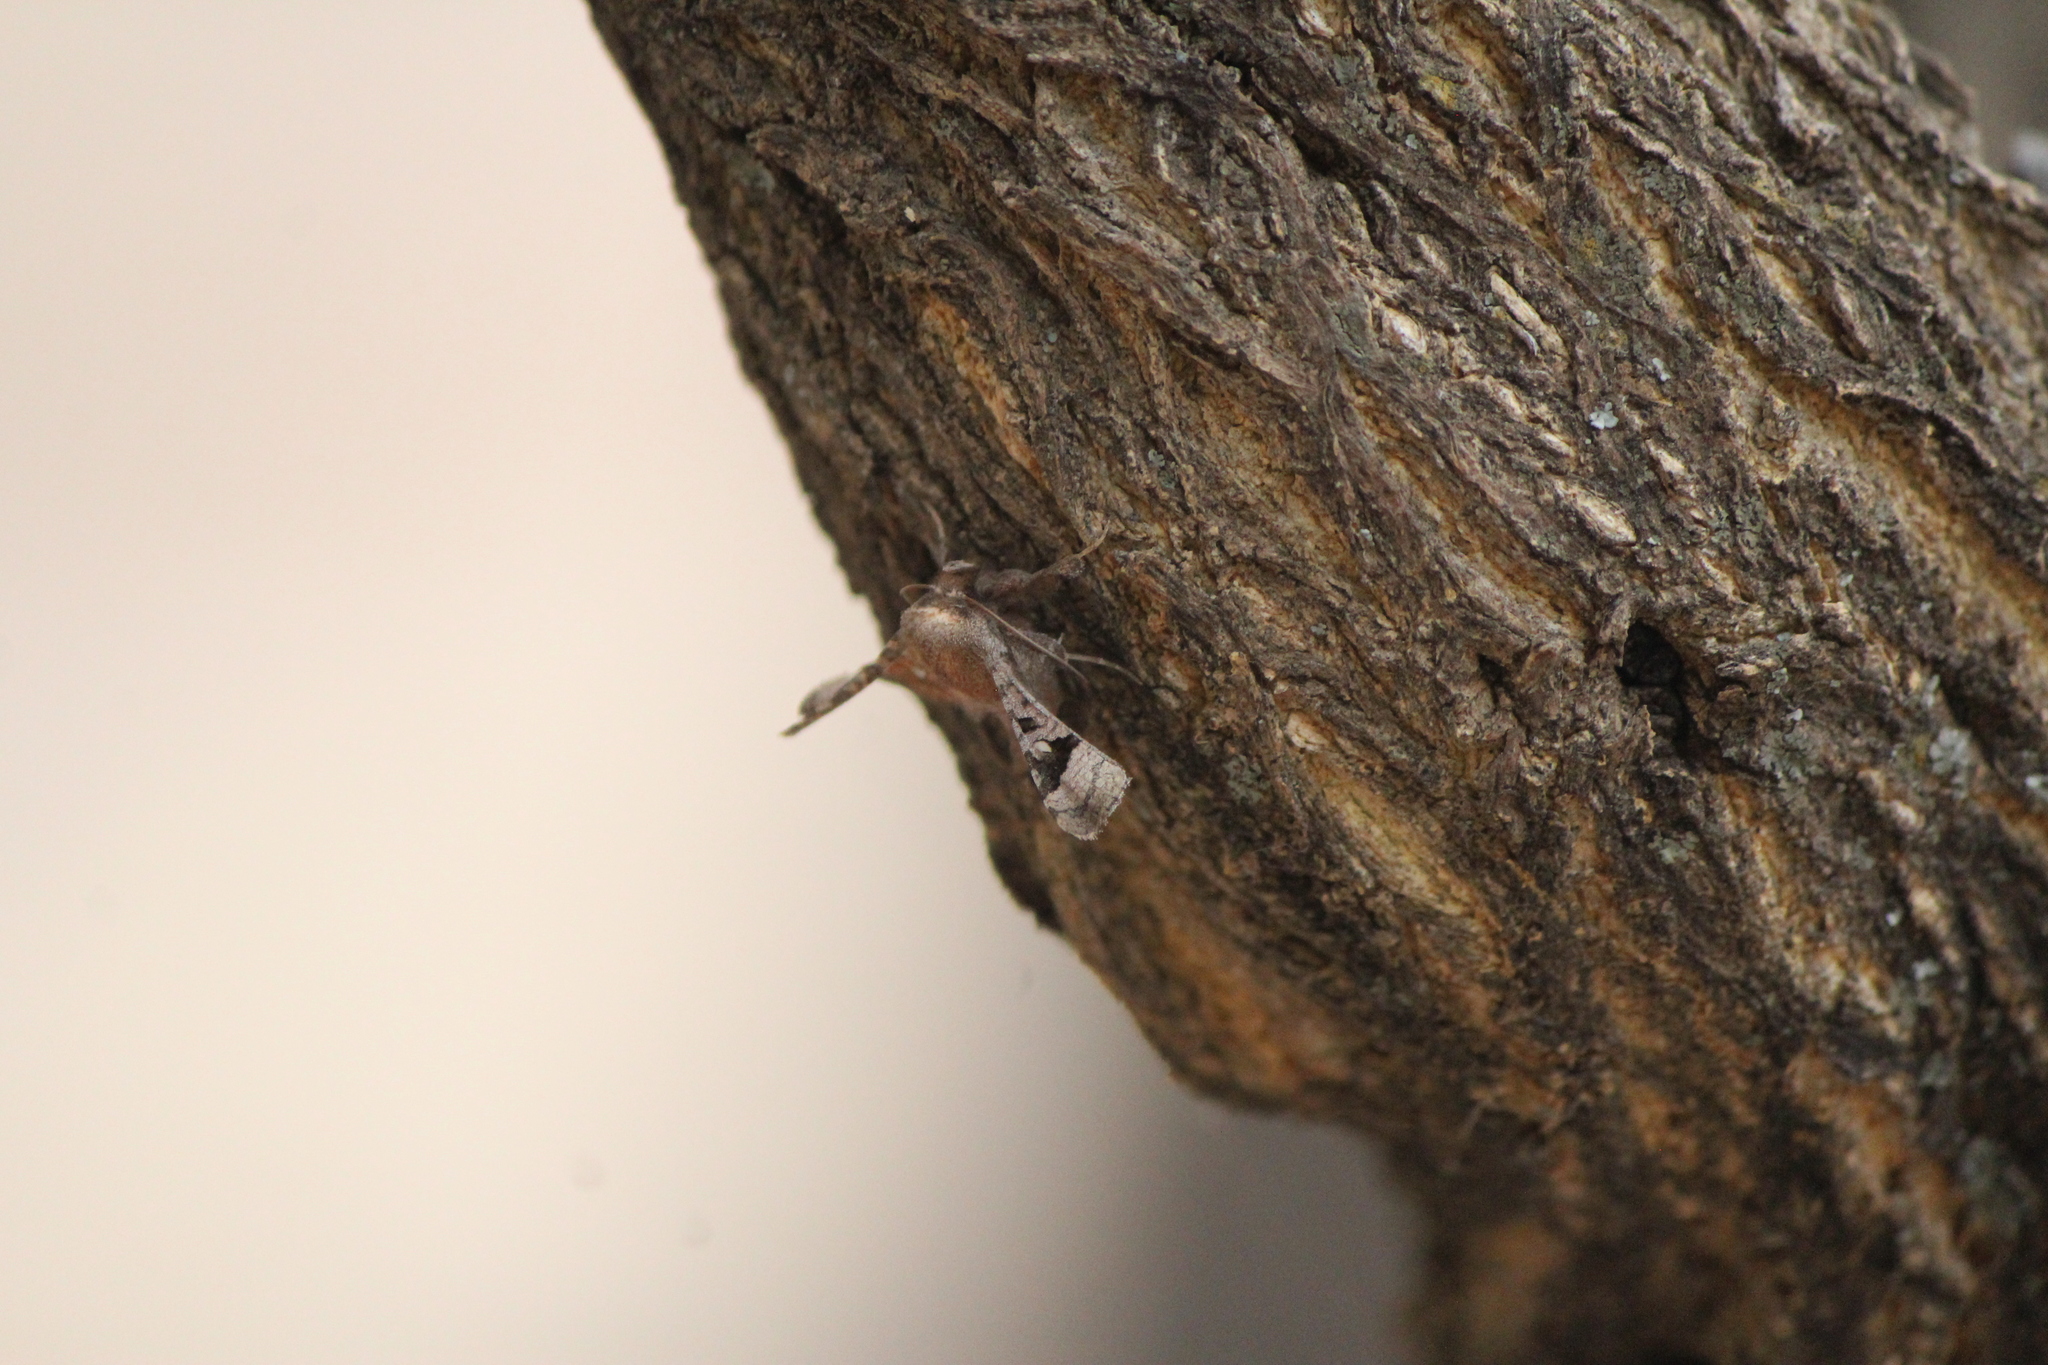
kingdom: Animalia
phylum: Arthropoda
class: Insecta
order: Lepidoptera
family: Thyrididae
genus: Dysodia
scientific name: Dysodia oculatana
